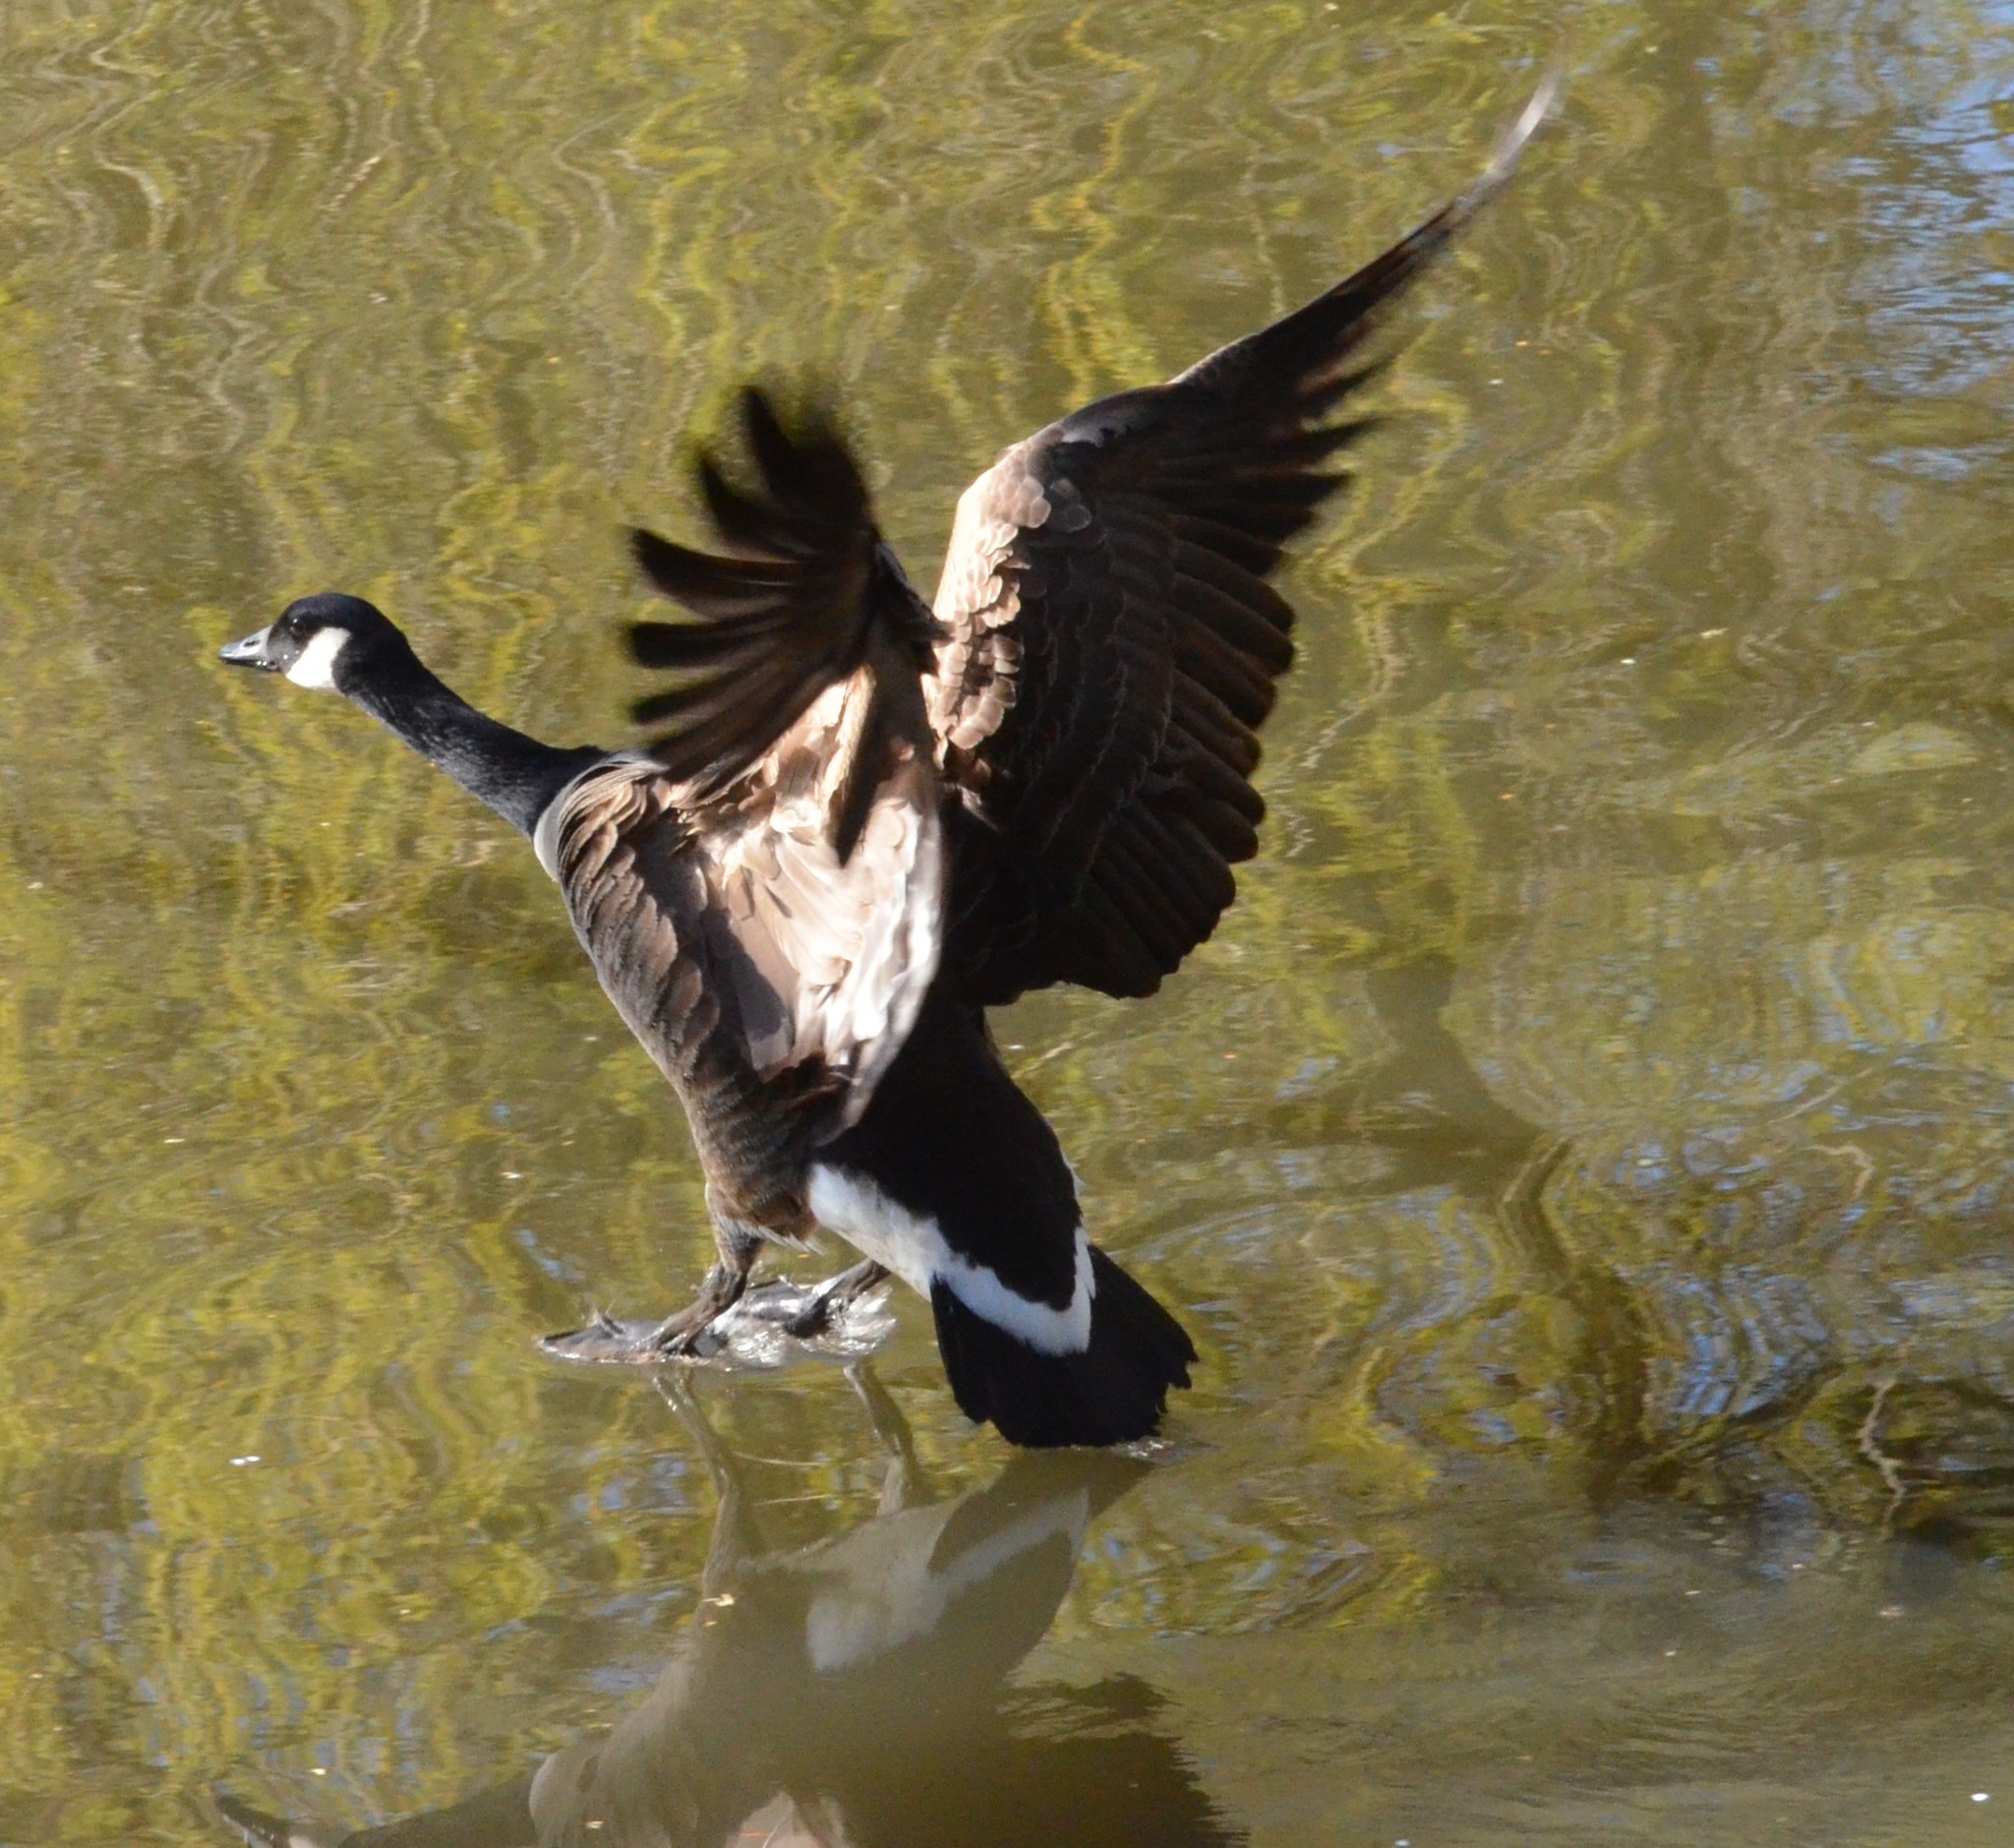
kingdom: Animalia
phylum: Chordata
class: Aves
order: Anseriformes
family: Anatidae
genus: Branta
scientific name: Branta canadensis
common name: Canada goose
